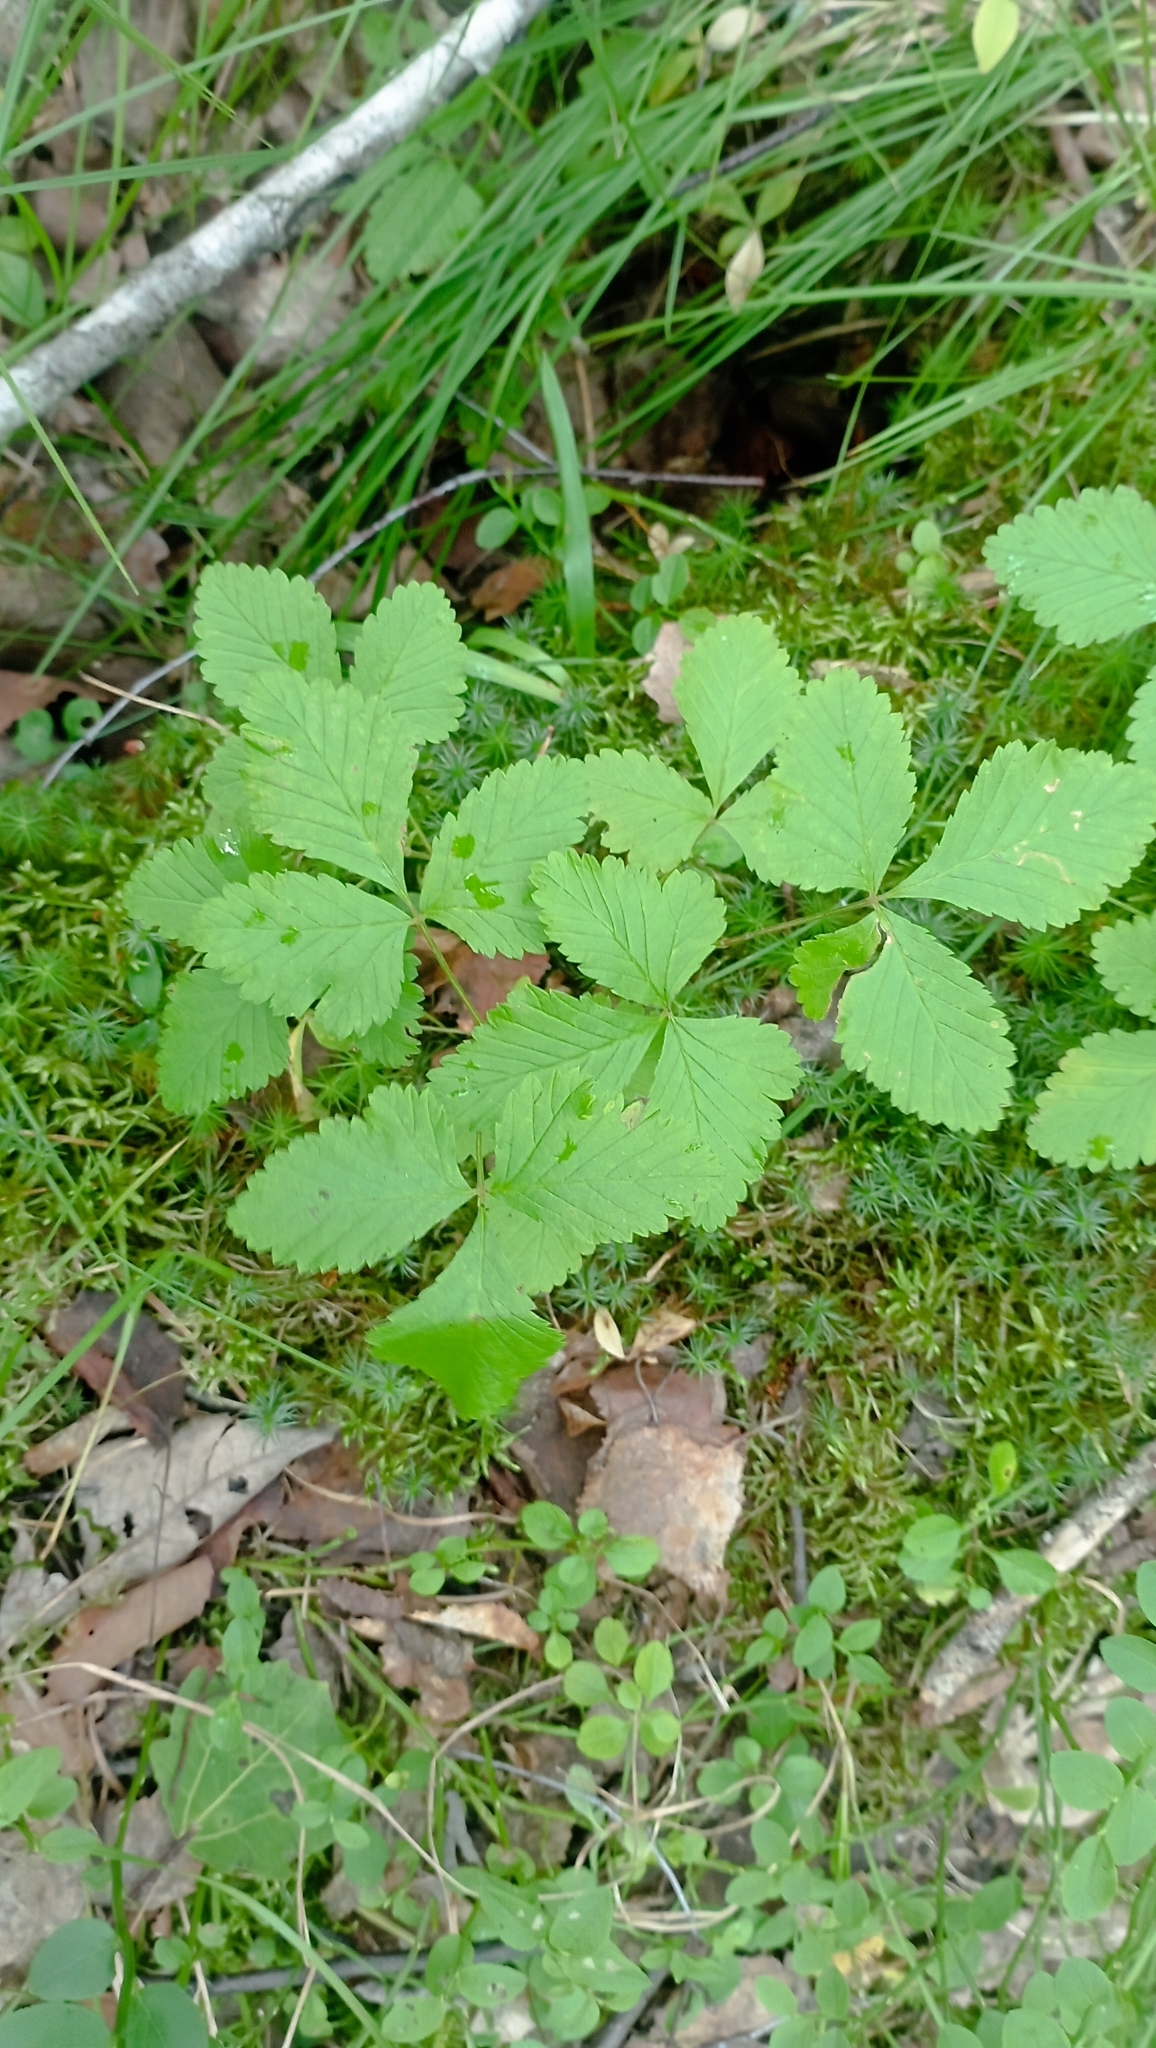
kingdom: Plantae
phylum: Tracheophyta
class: Magnoliopsida
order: Rosales
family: Rosaceae
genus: Rubus
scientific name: Rubus arcticus
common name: Arctic bramble
